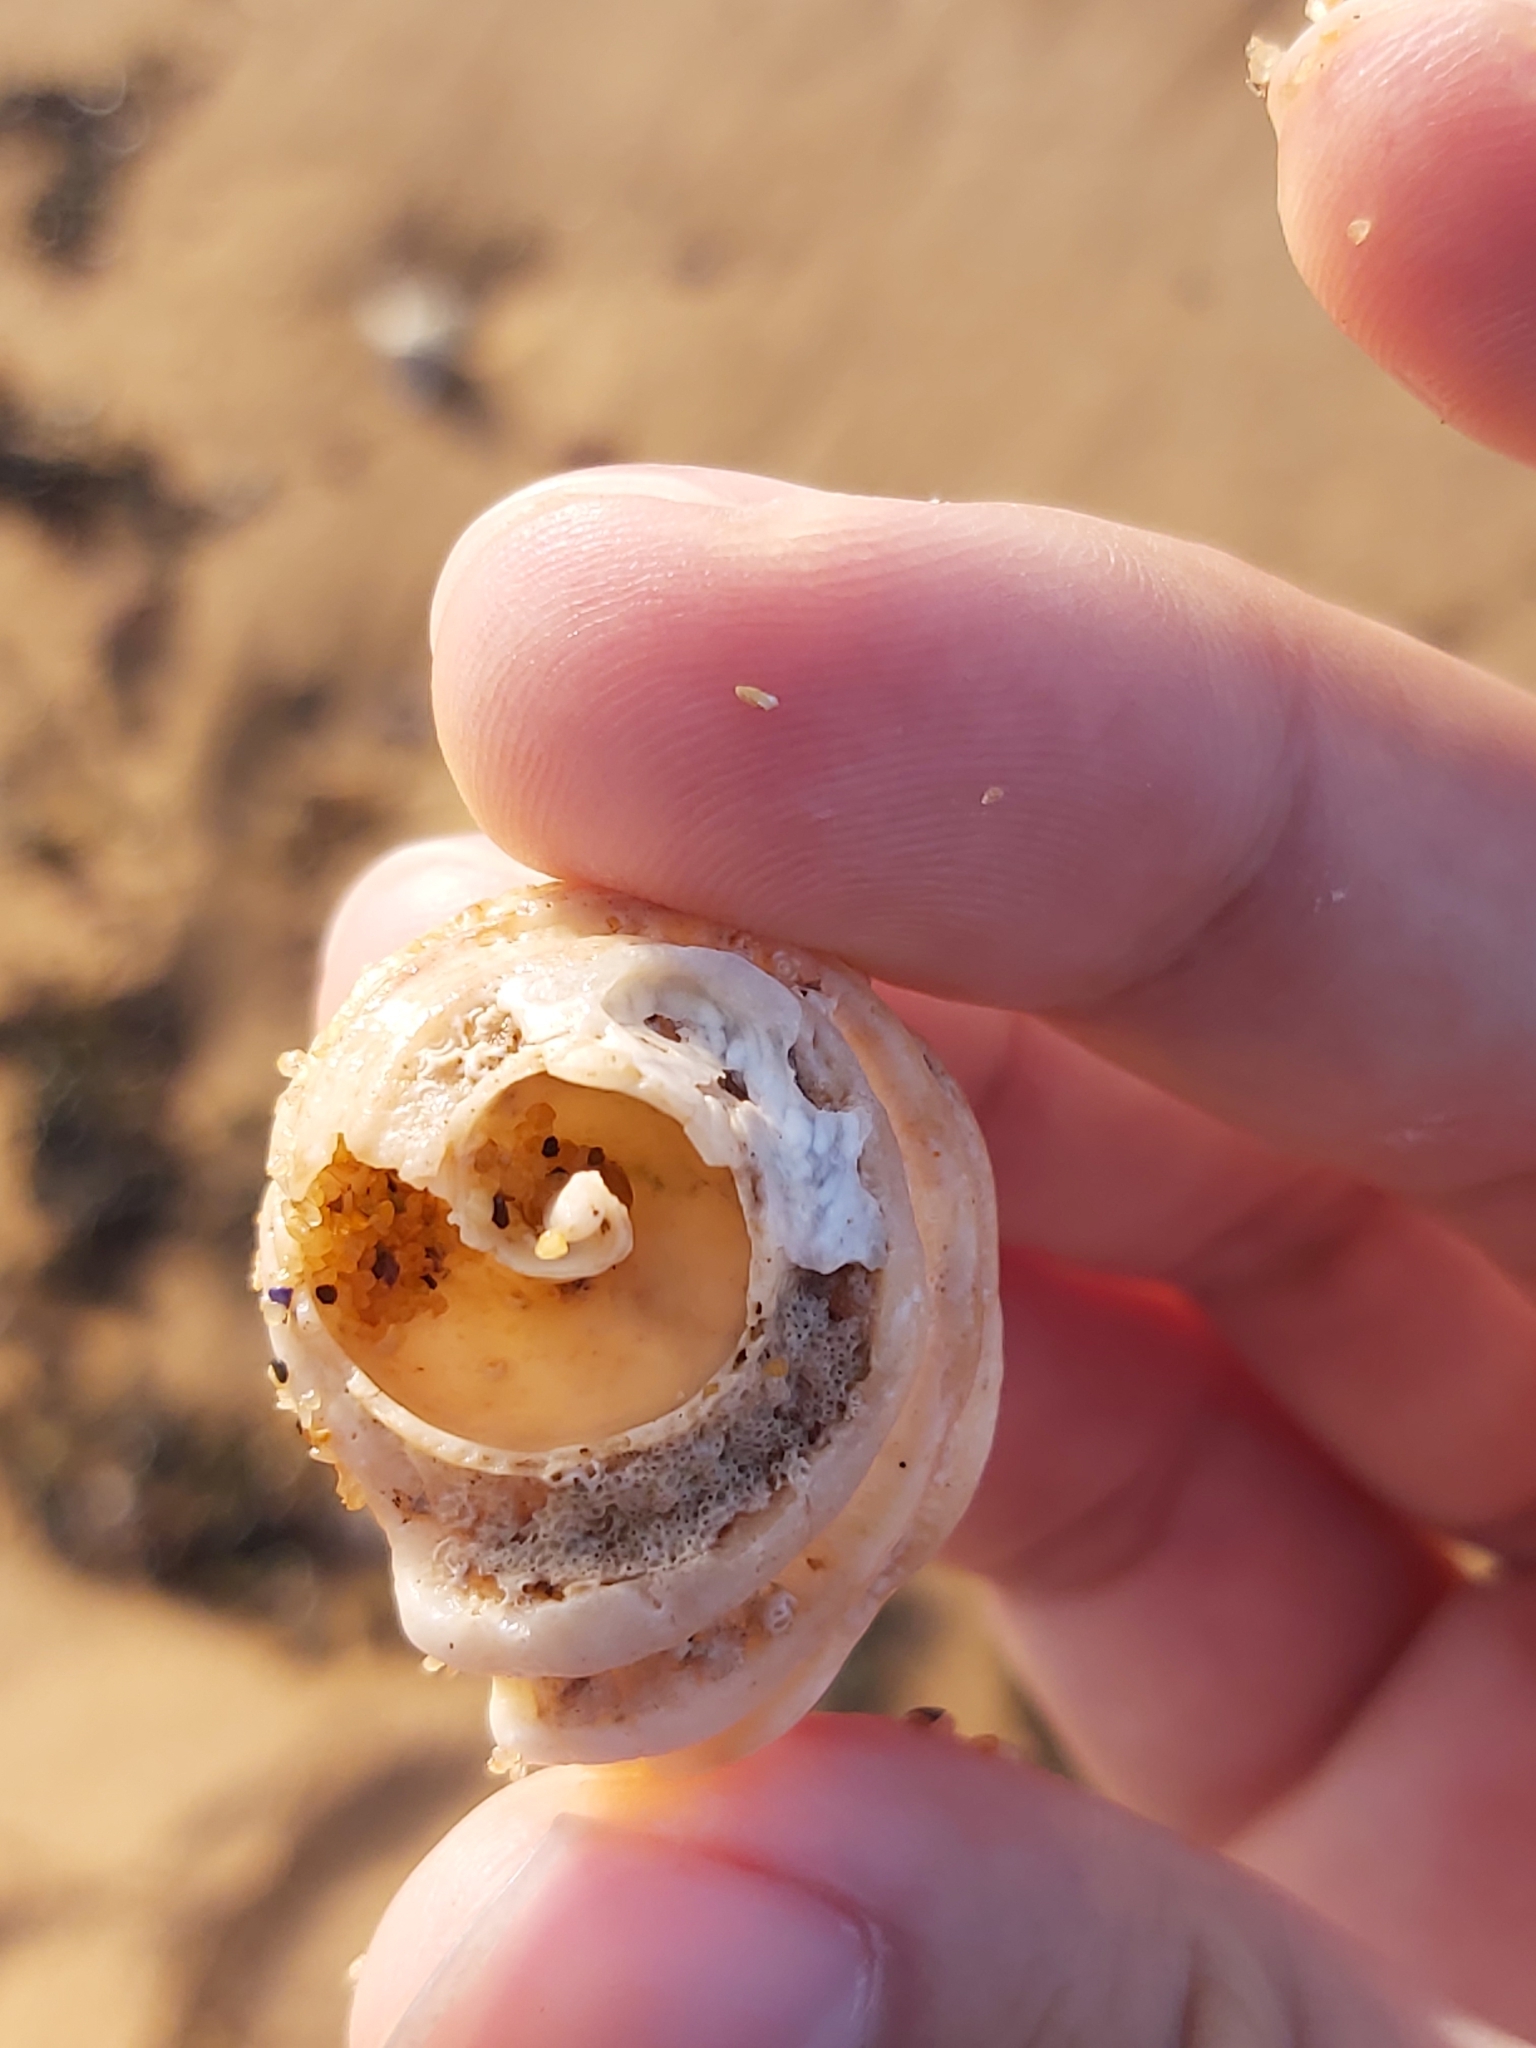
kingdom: Animalia
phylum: Mollusca
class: Gastropoda
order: Neogastropoda
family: Muricidae
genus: Dicathais
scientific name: Dicathais orbita
